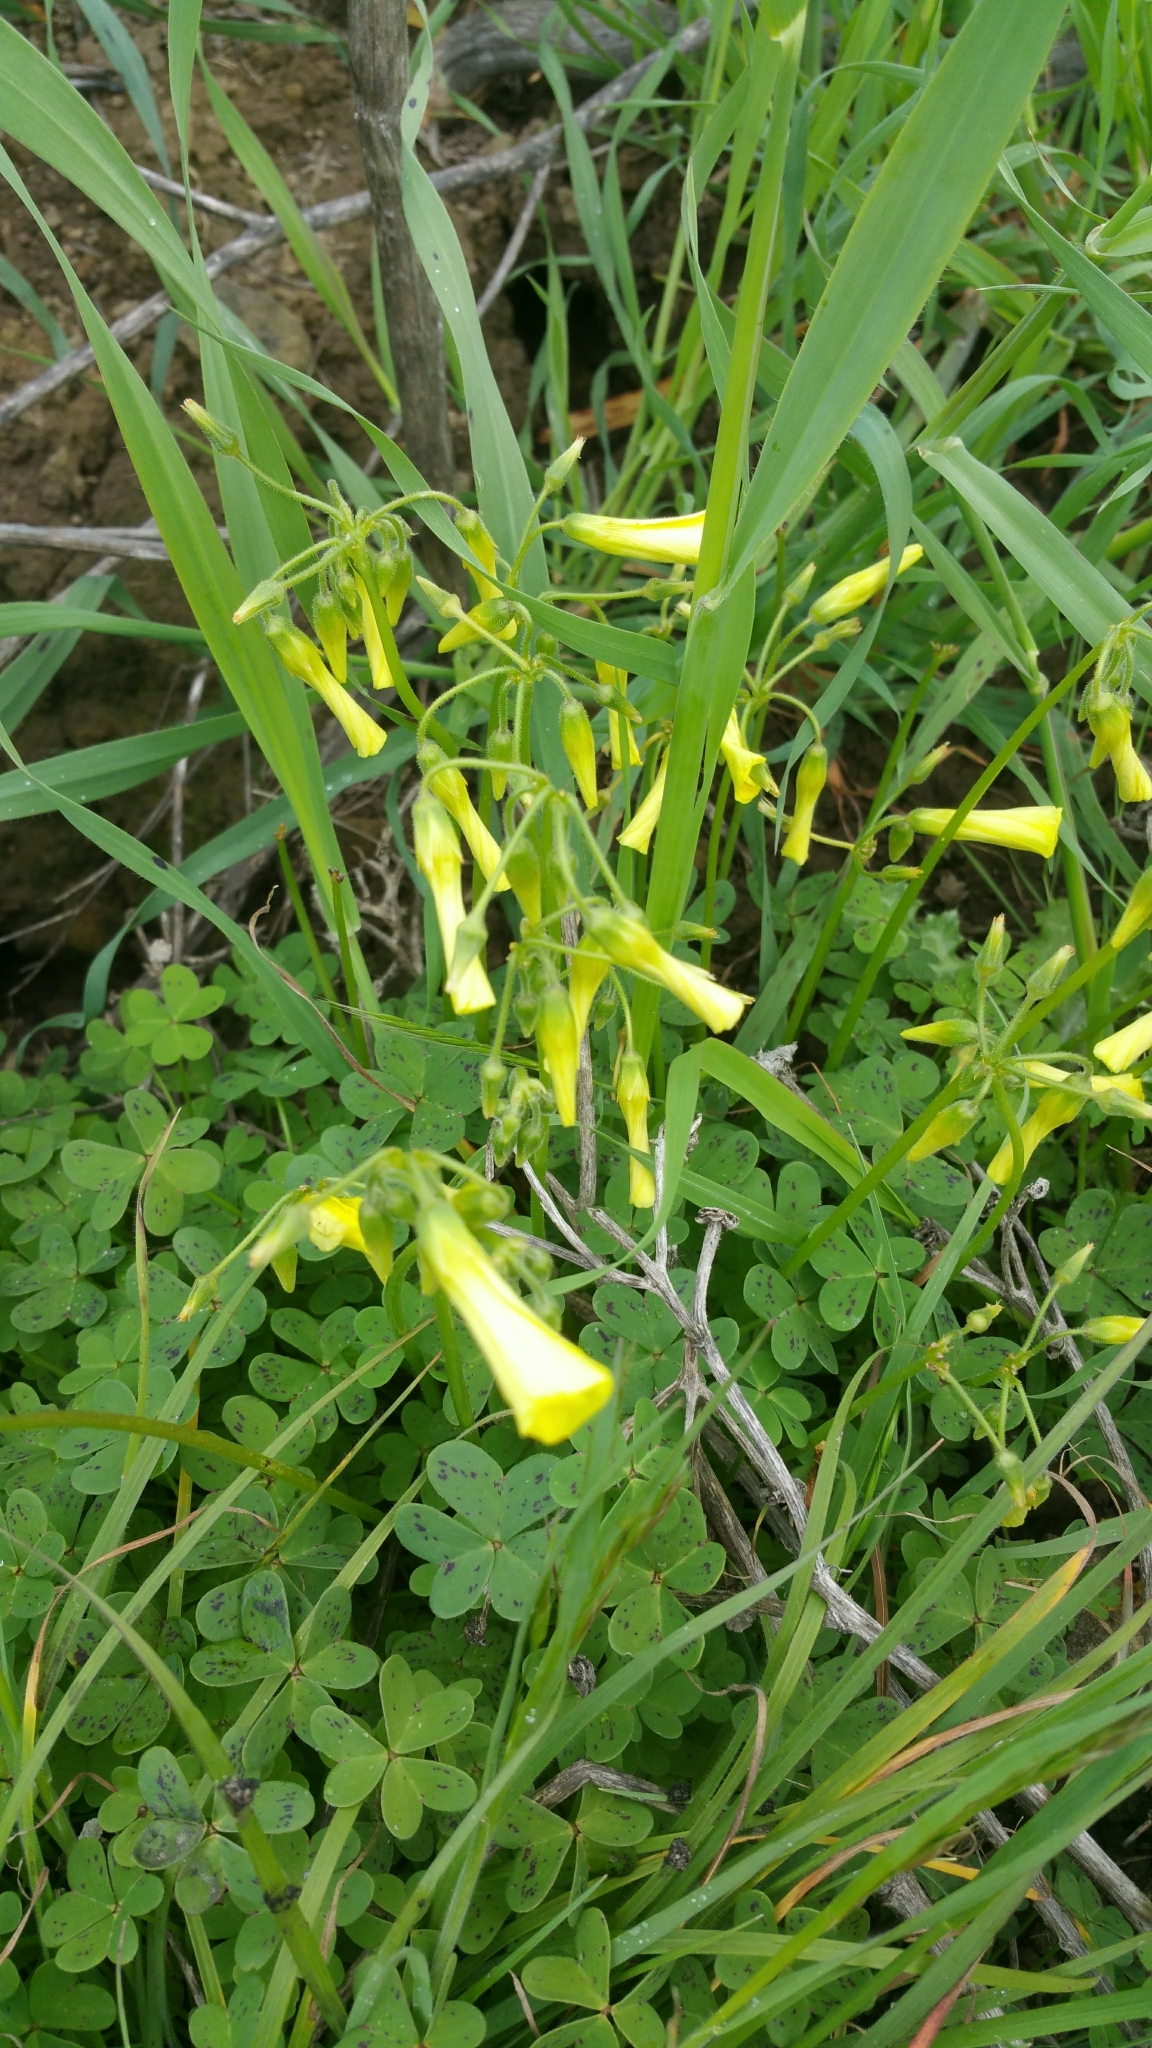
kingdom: Plantae
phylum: Tracheophyta
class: Magnoliopsida
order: Oxalidales
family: Oxalidaceae
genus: Oxalis
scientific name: Oxalis pes-caprae
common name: Bermuda-buttercup
